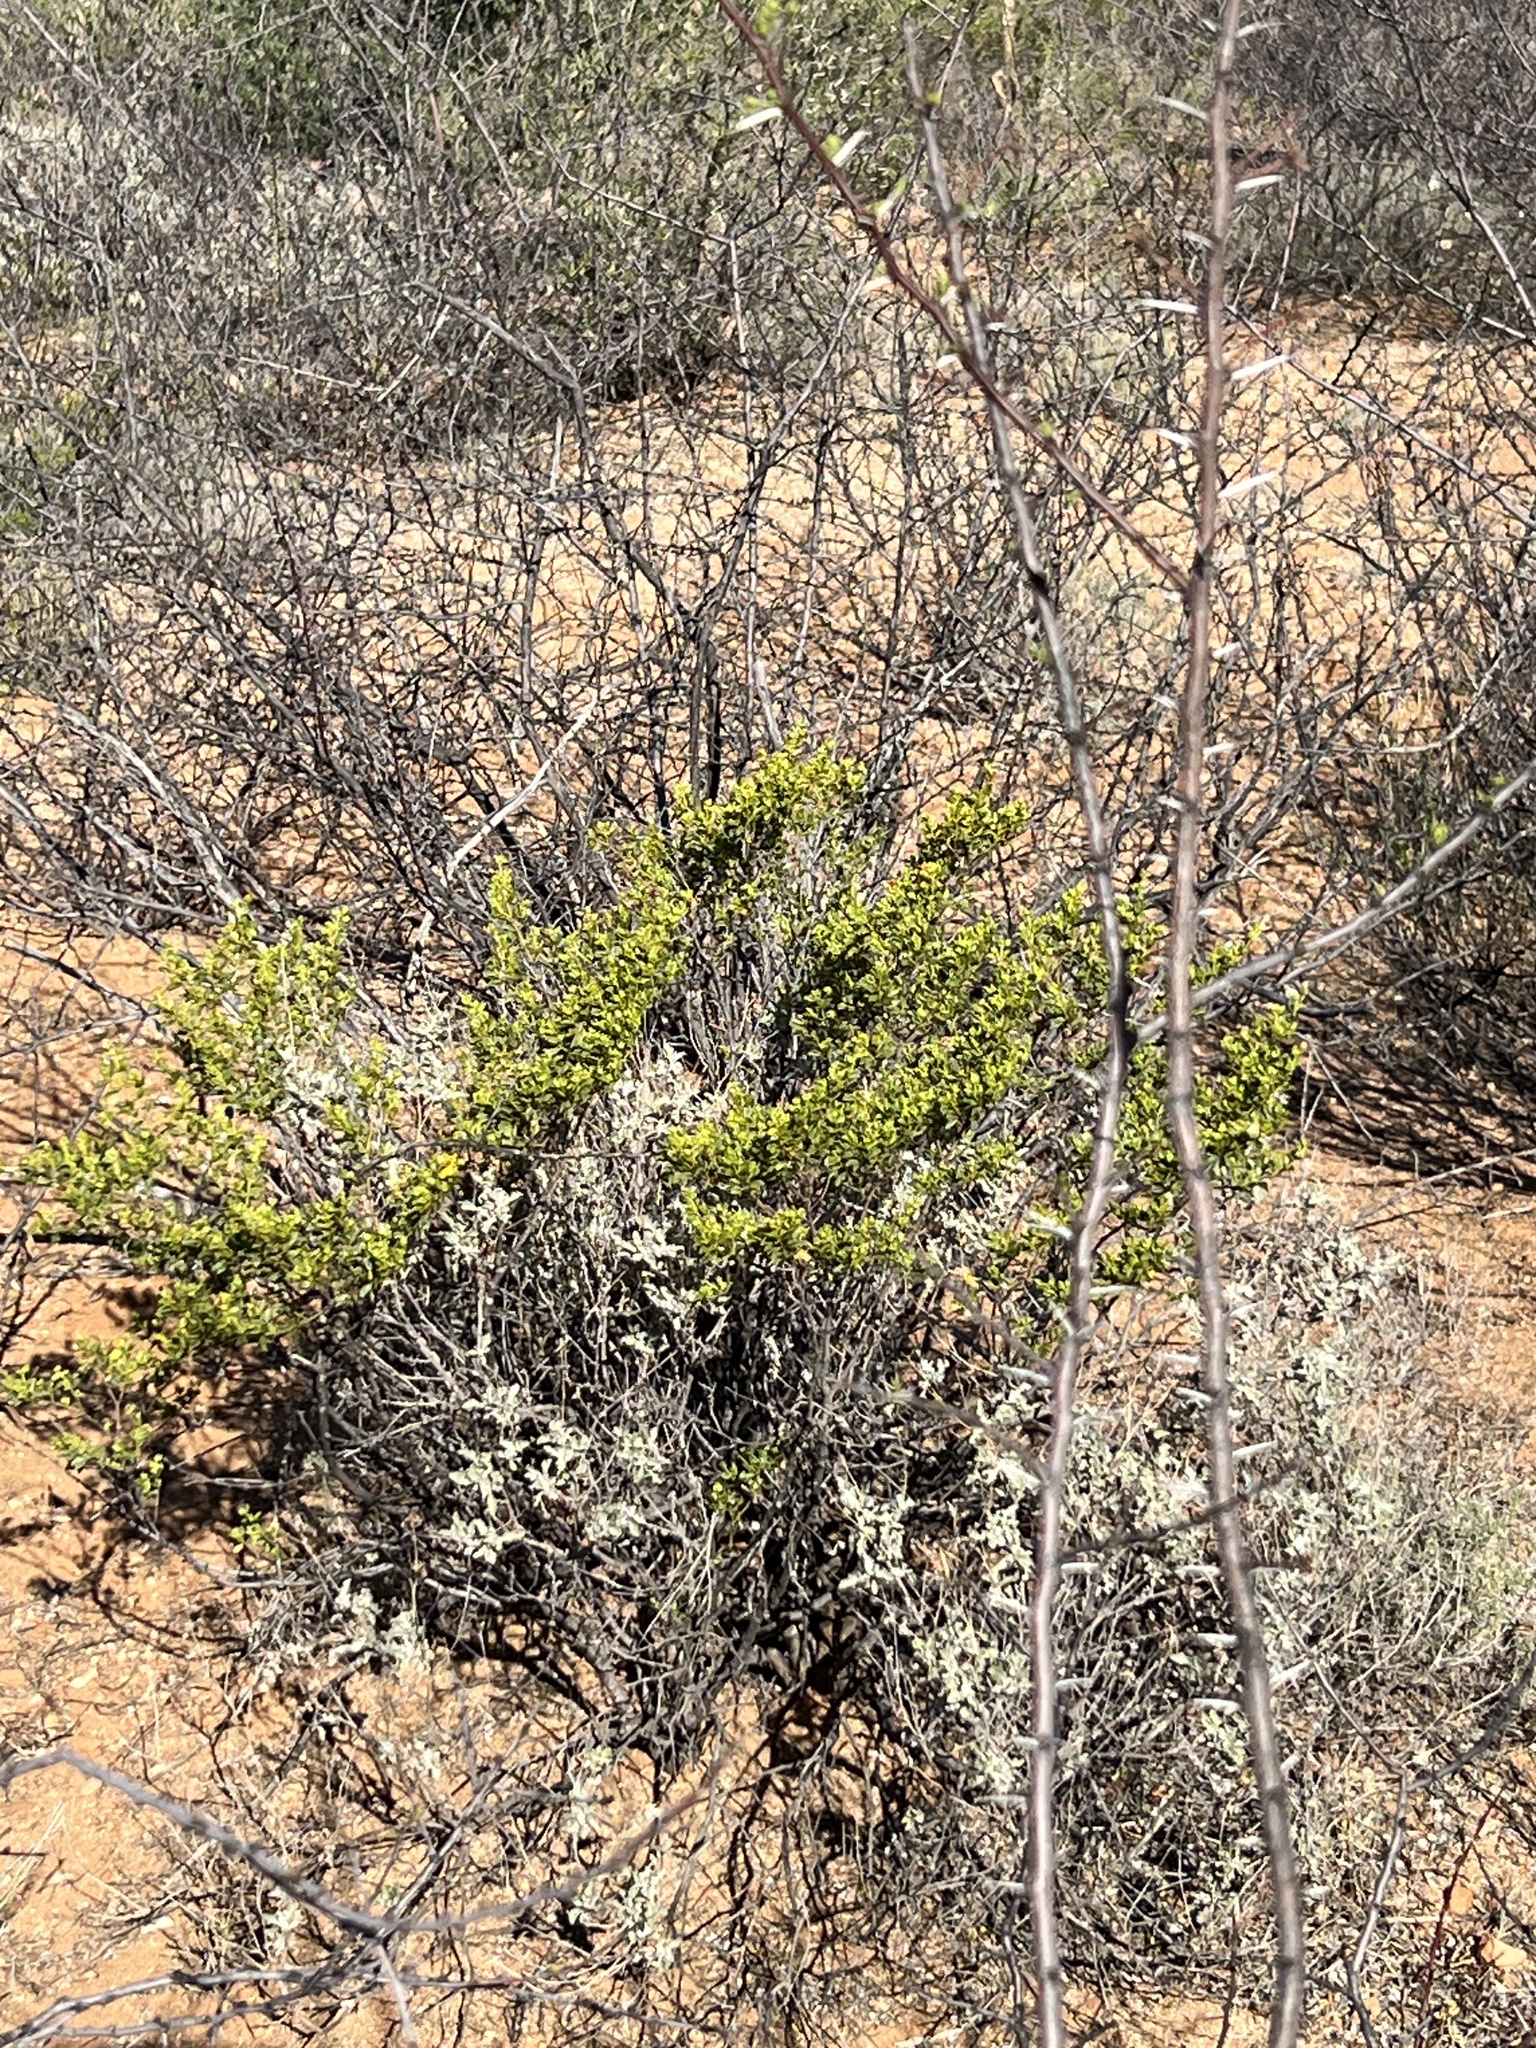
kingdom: Plantae
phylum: Tracheophyta
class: Magnoliopsida
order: Zygophyllales
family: Zygophyllaceae
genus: Larrea
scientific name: Larrea tridentata
